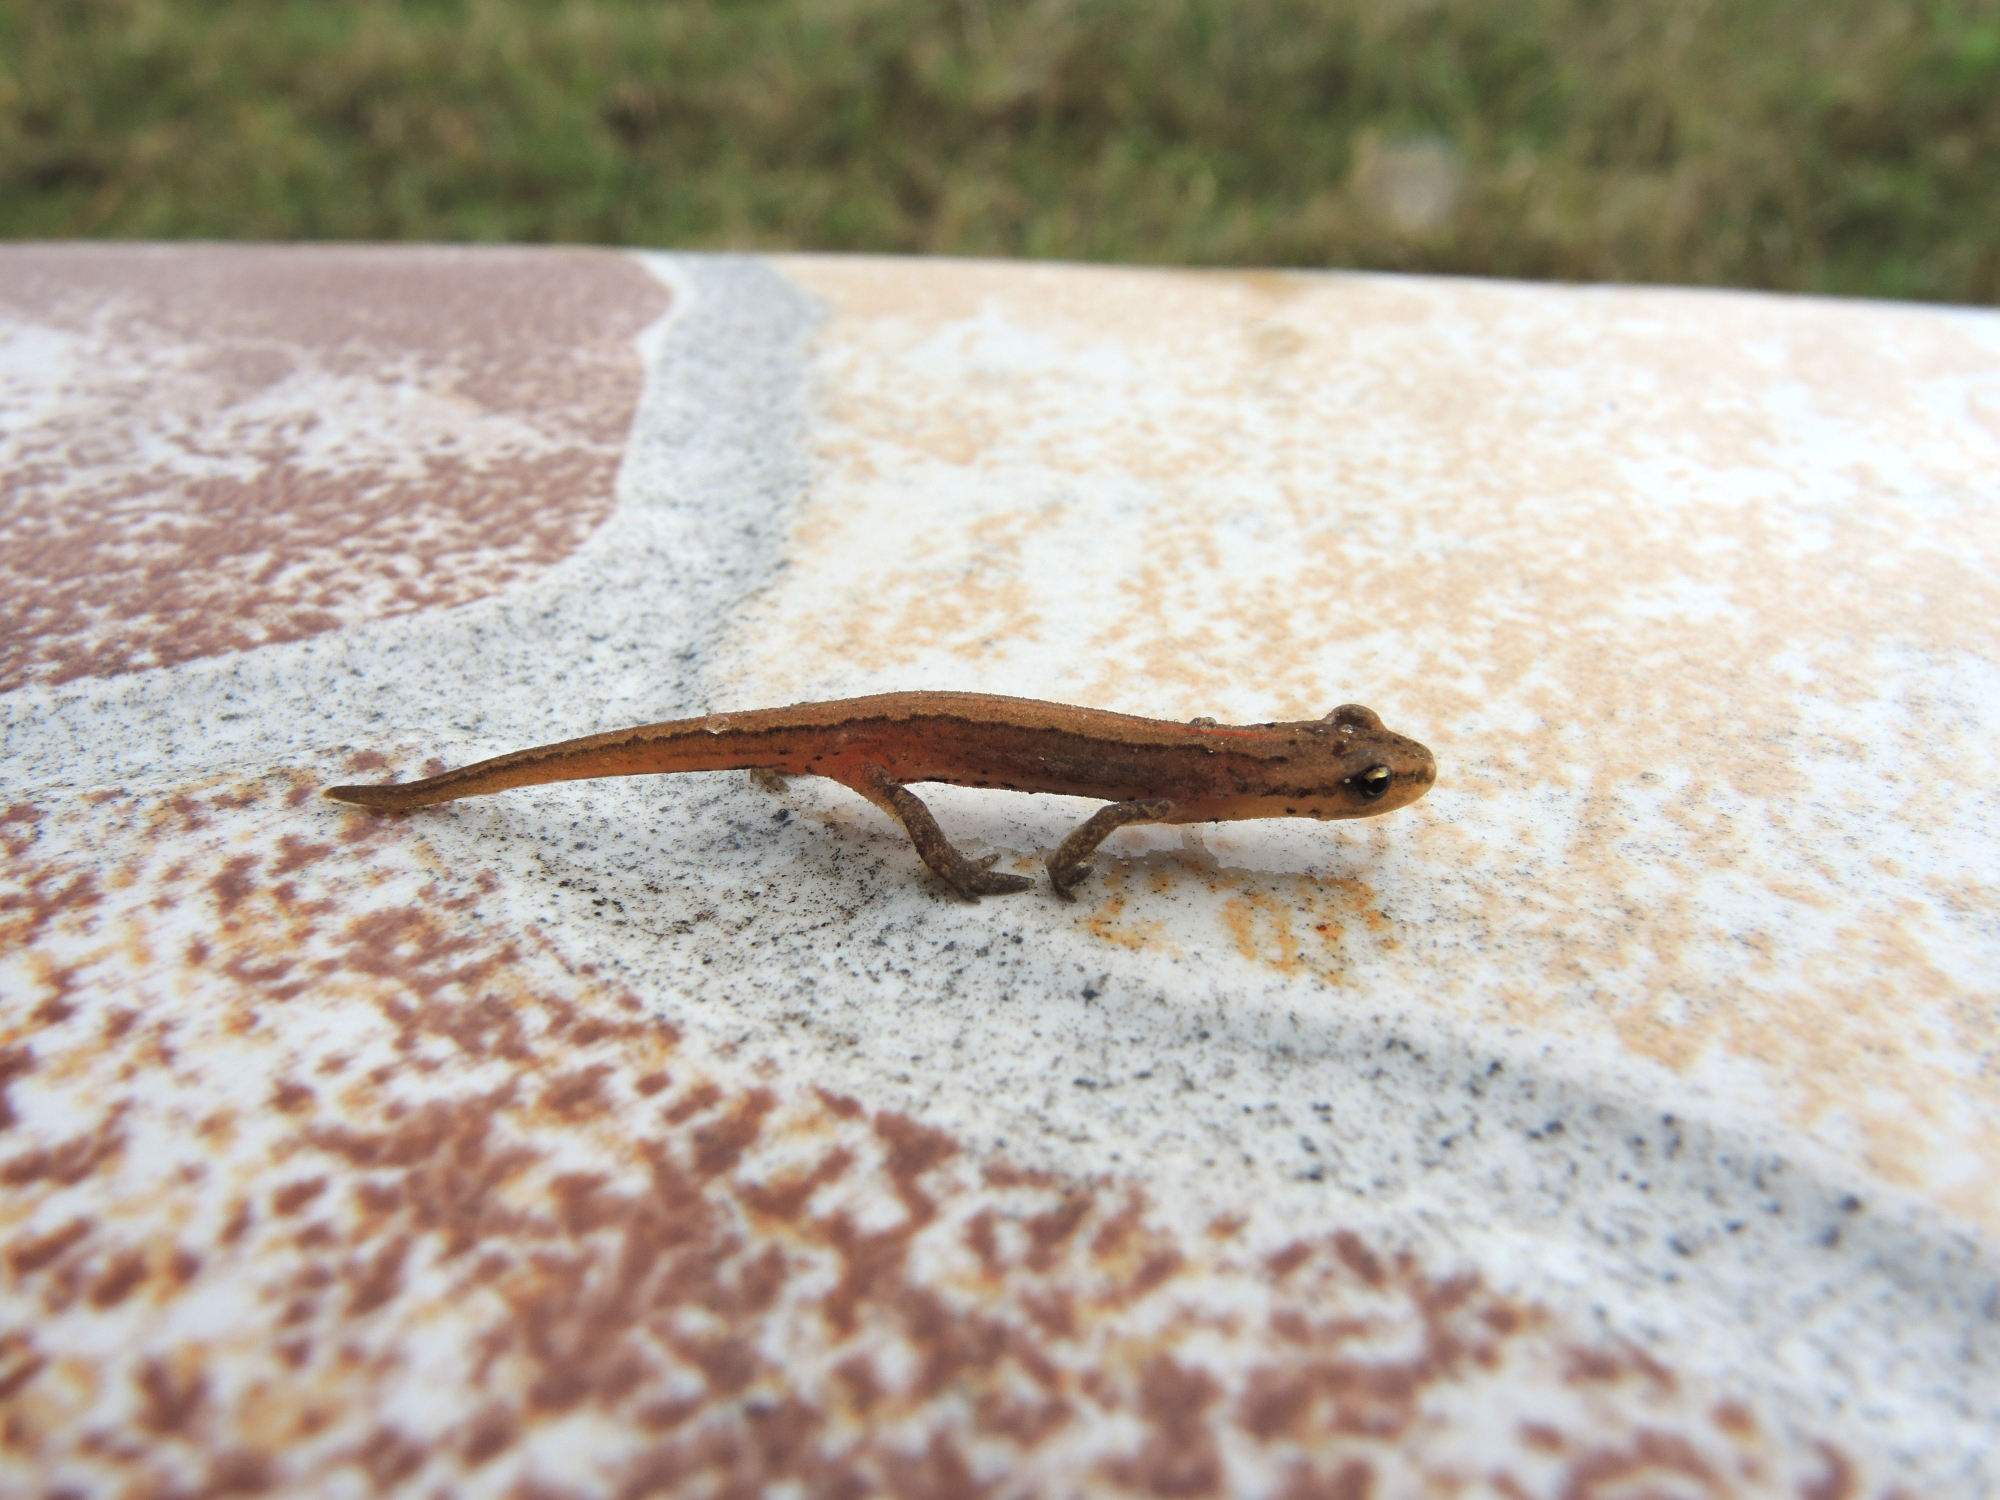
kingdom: Animalia
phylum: Chordata
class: Amphibia
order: Caudata
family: Salamandridae
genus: Lissotriton
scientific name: Lissotriton schmidtleri
